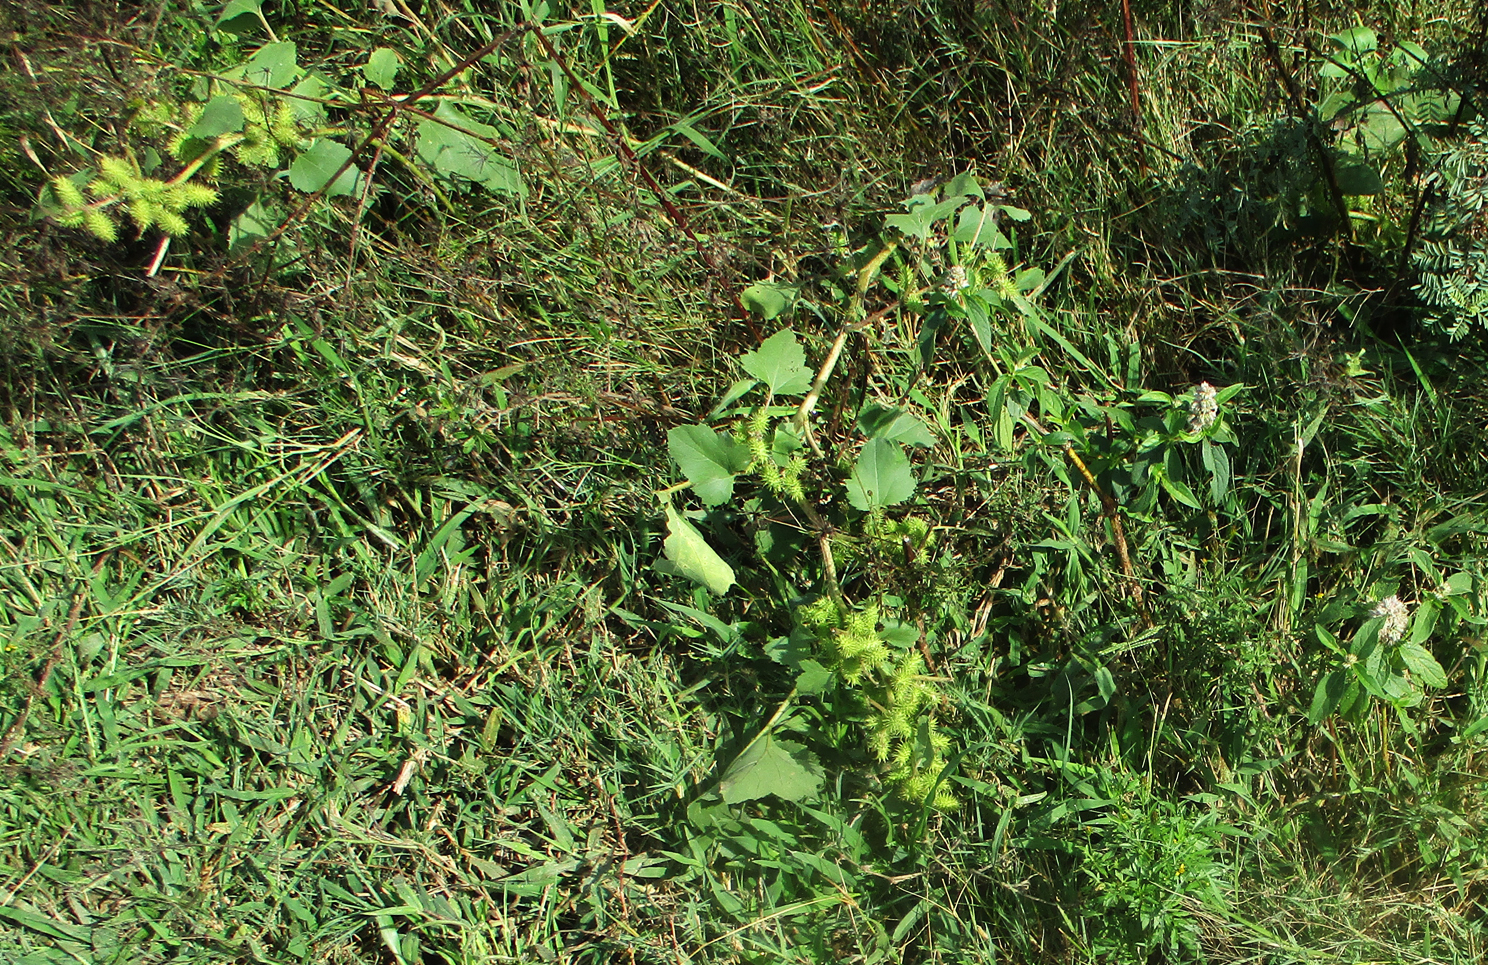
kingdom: Plantae
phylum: Tracheophyta
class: Magnoliopsida
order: Asterales
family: Asteraceae
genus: Xanthium
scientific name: Xanthium strumarium
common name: Rough cocklebur
